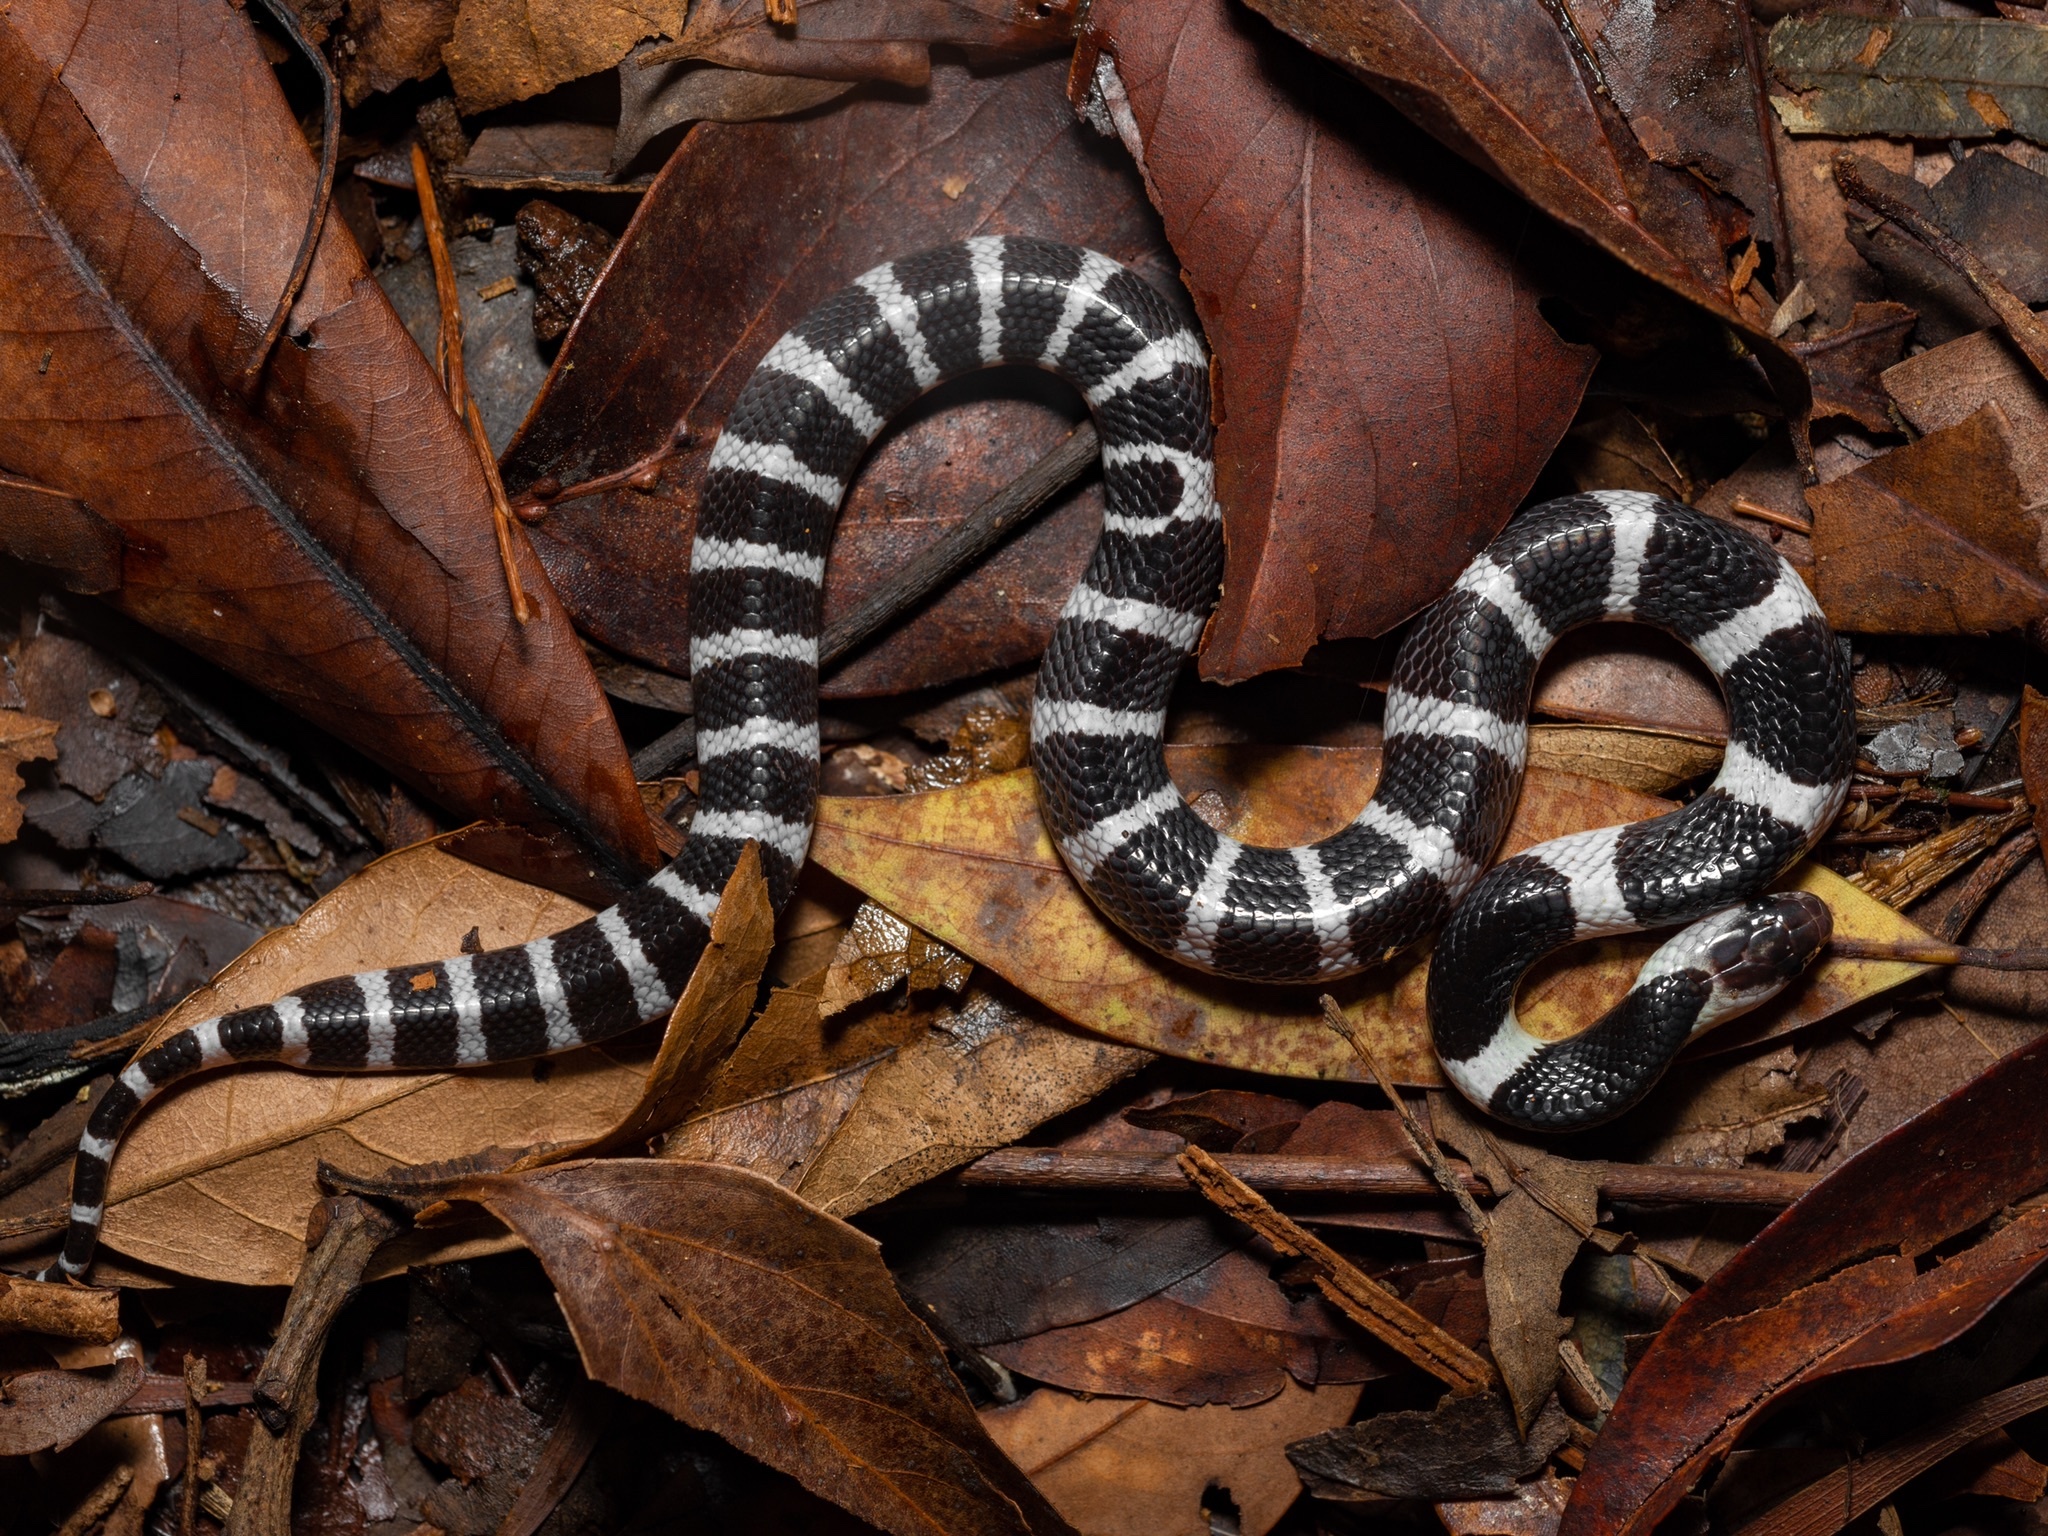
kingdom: Animalia
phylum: Chordata
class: Squamata
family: Elapidae
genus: Bungarus
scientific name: Bungarus multicinctus
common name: Many-banded krait
